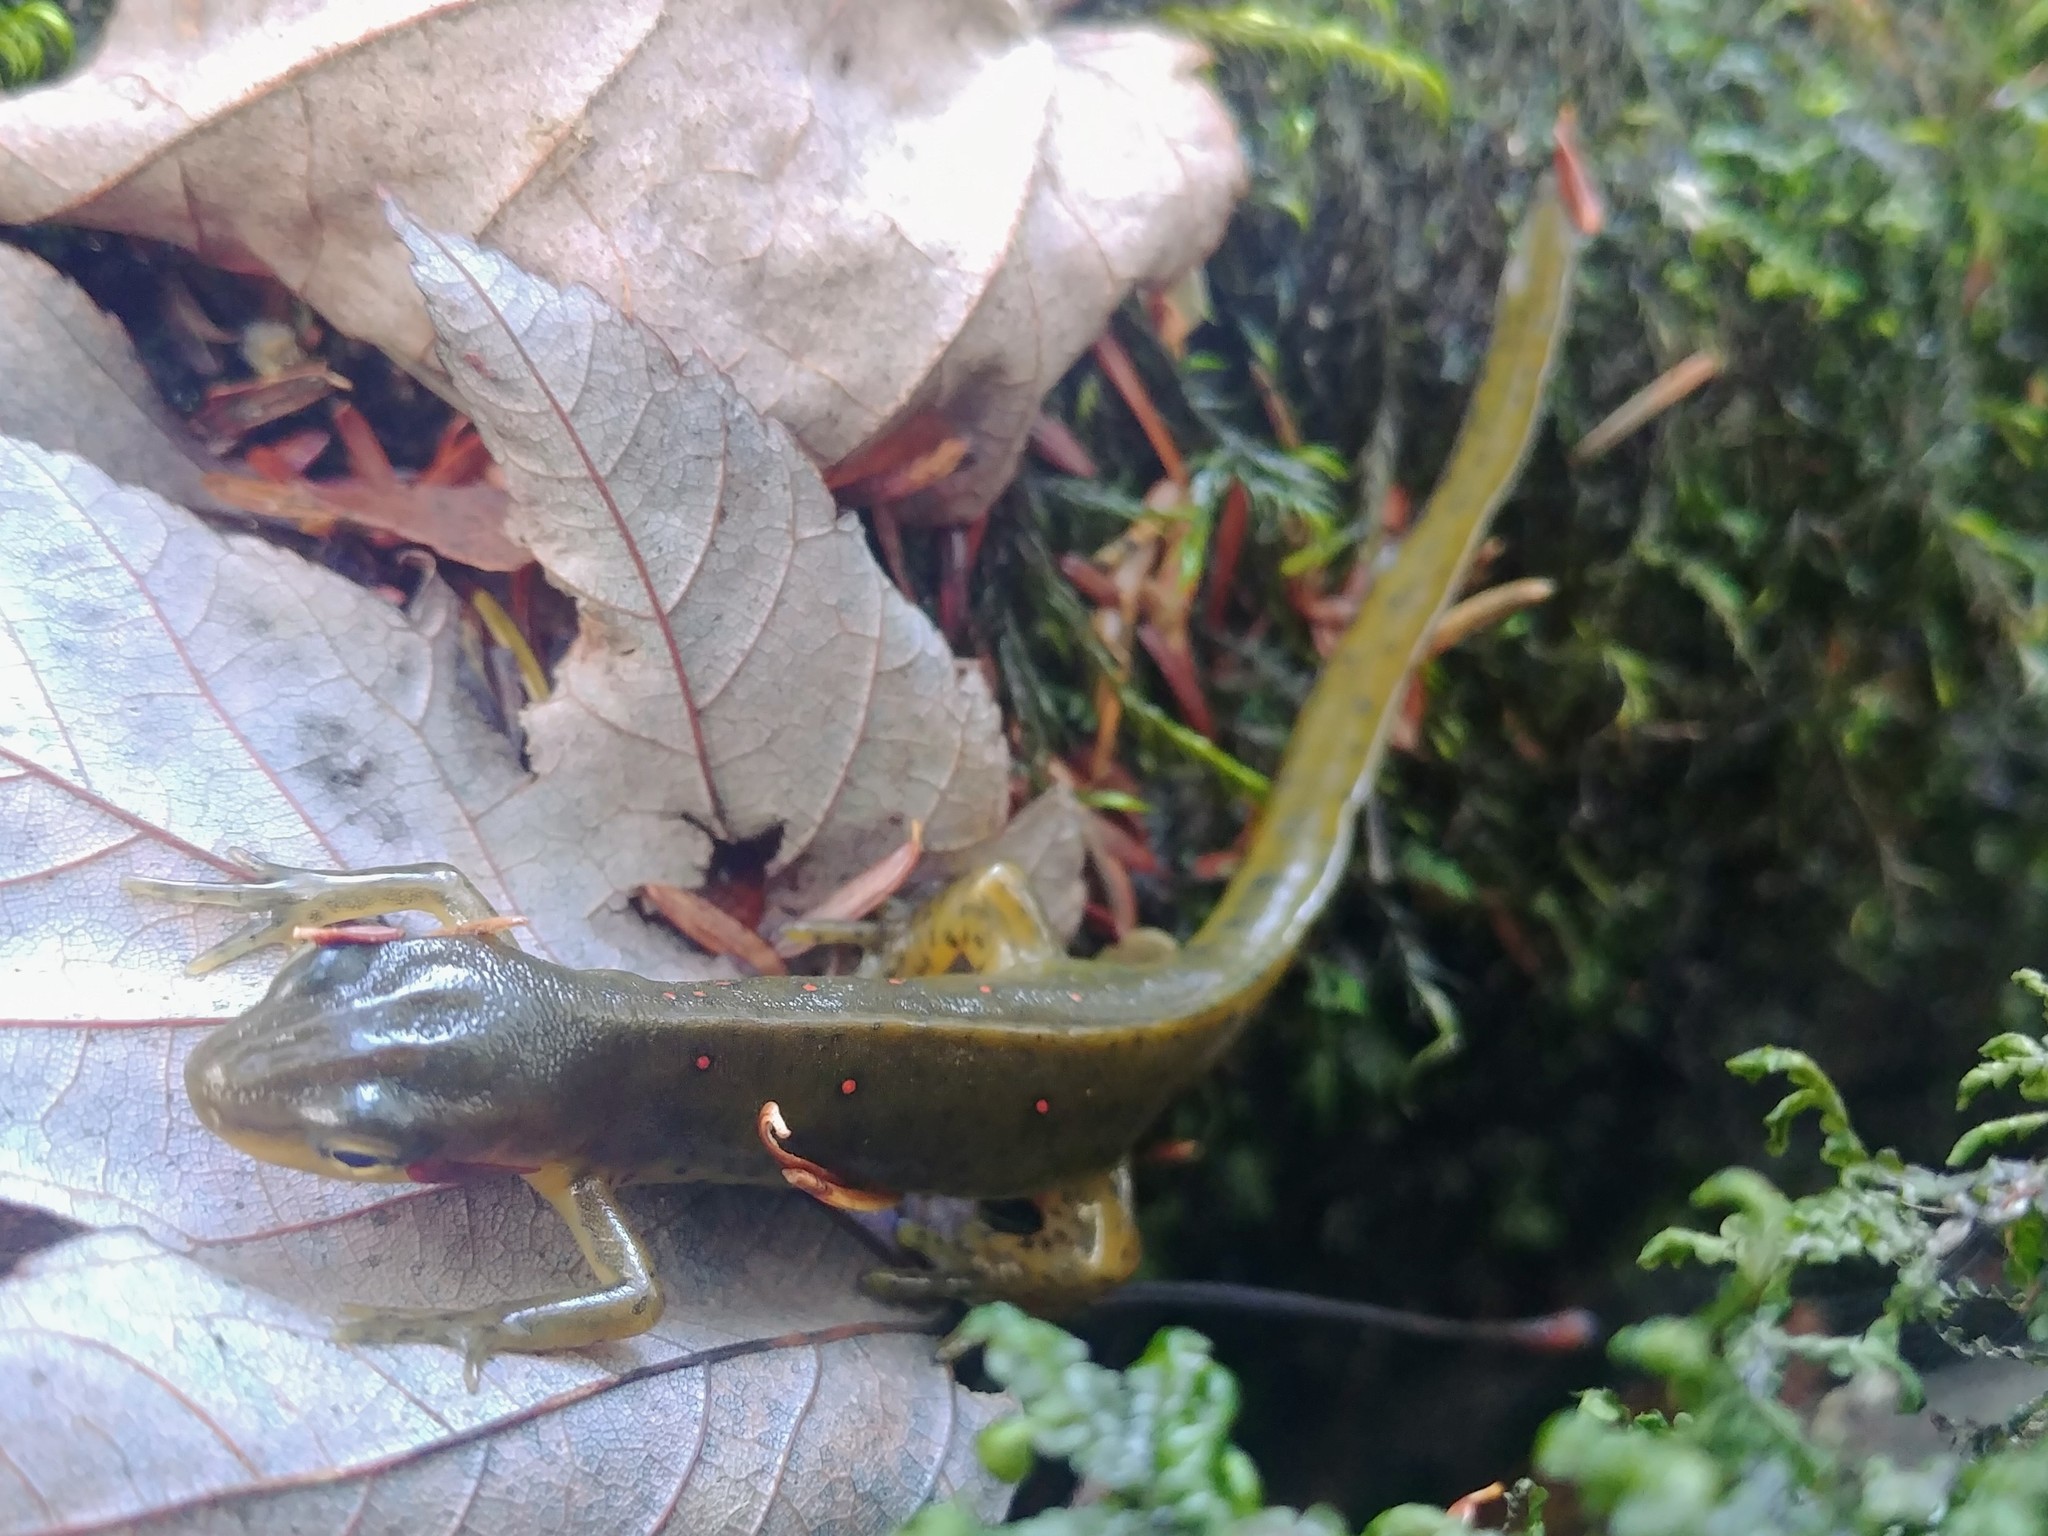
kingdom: Animalia
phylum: Chordata
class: Amphibia
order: Caudata
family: Salamandridae
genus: Notophthalmus
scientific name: Notophthalmus viridescens
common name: Eastern newt
